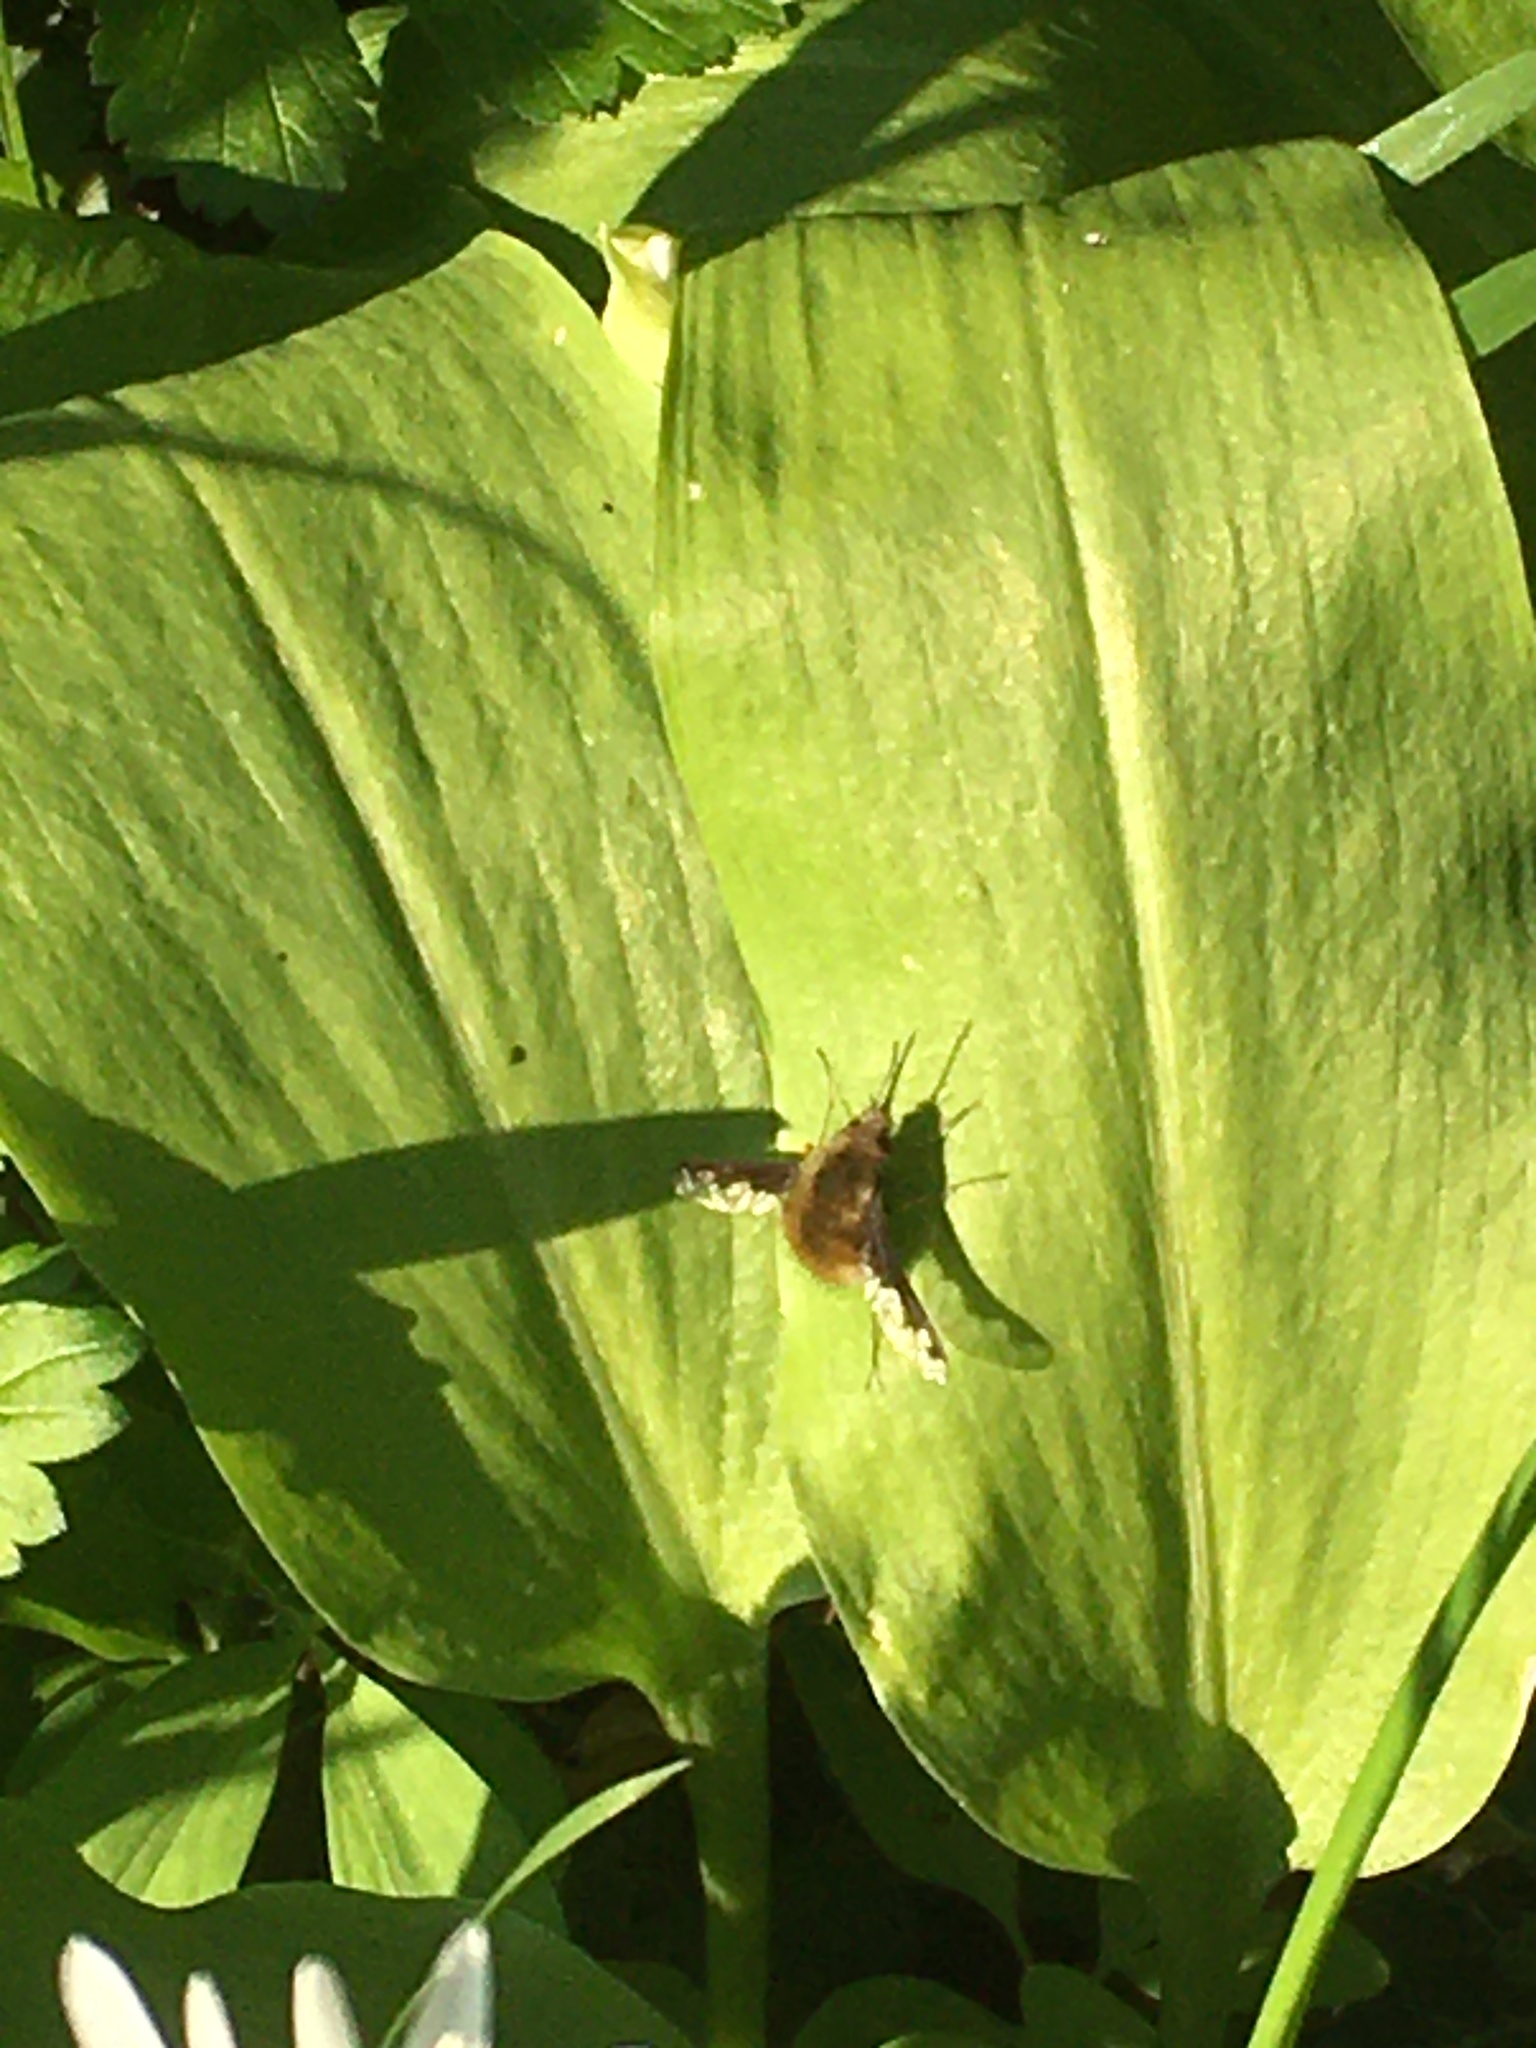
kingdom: Animalia
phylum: Arthropoda
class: Insecta
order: Diptera
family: Bombyliidae
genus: Bombylius
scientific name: Bombylius major
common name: Bee fly
